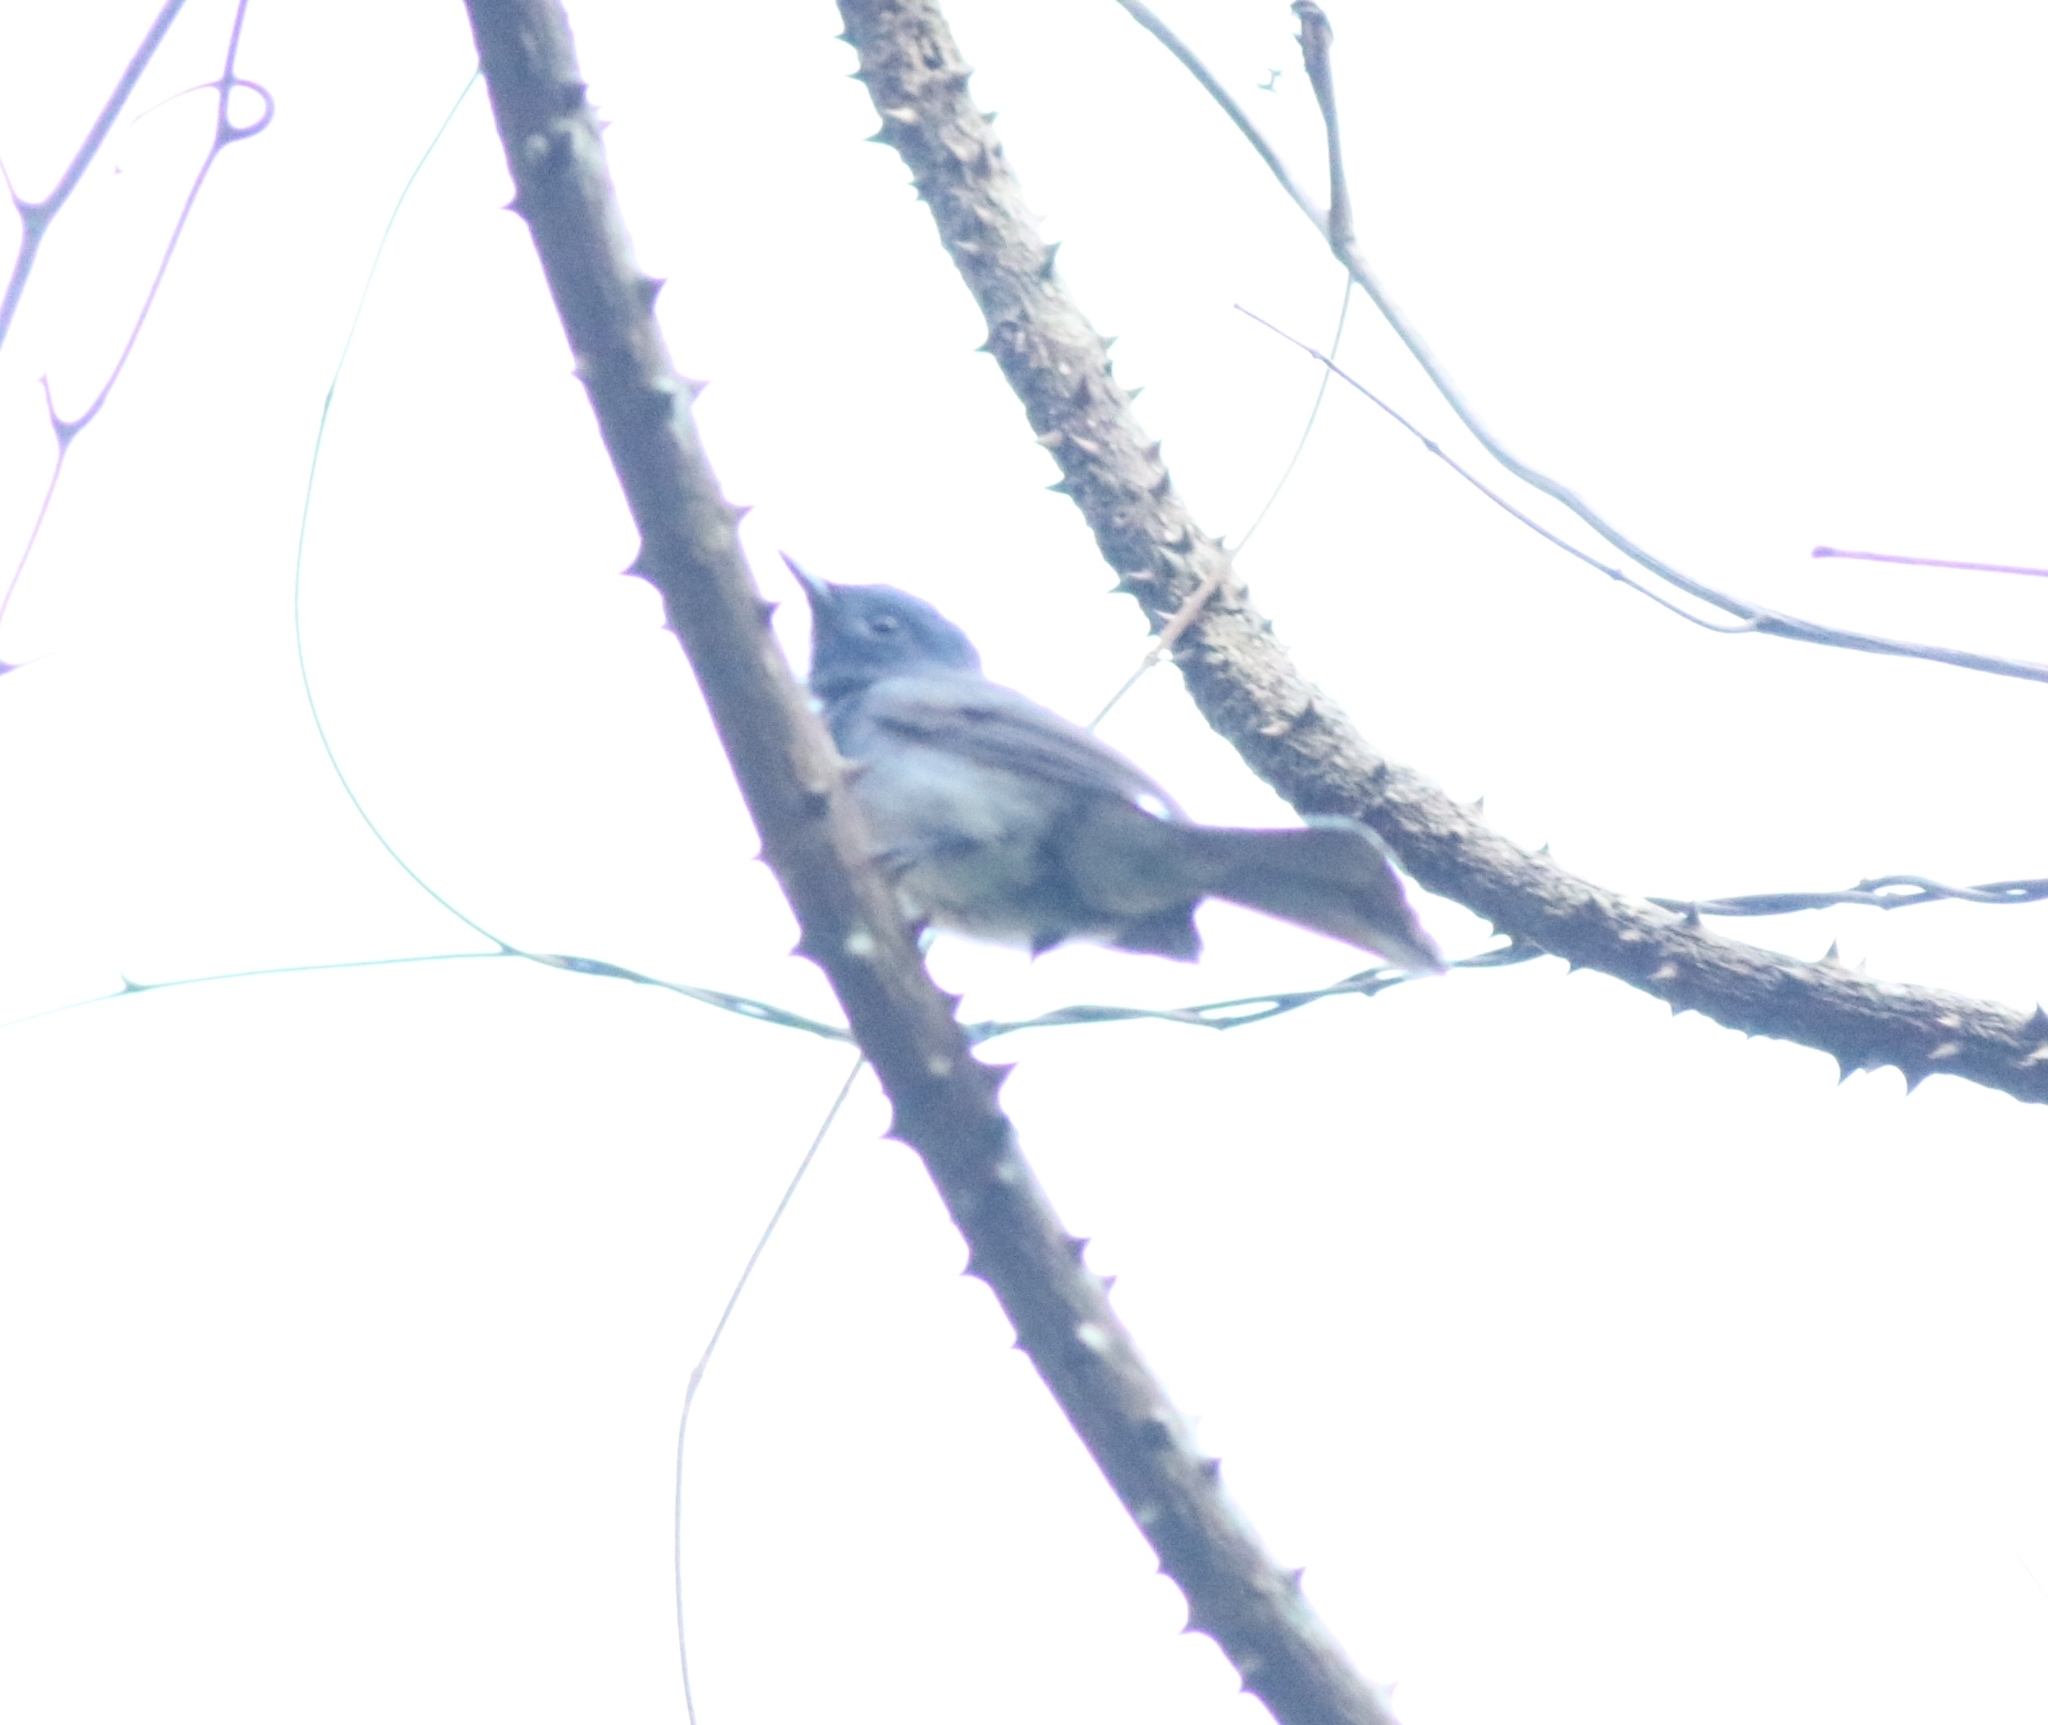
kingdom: Animalia
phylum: Chordata
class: Aves
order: Passeriformes
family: Monarchidae
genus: Hypothymis
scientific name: Hypothymis azurea
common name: Black-naped monarch
